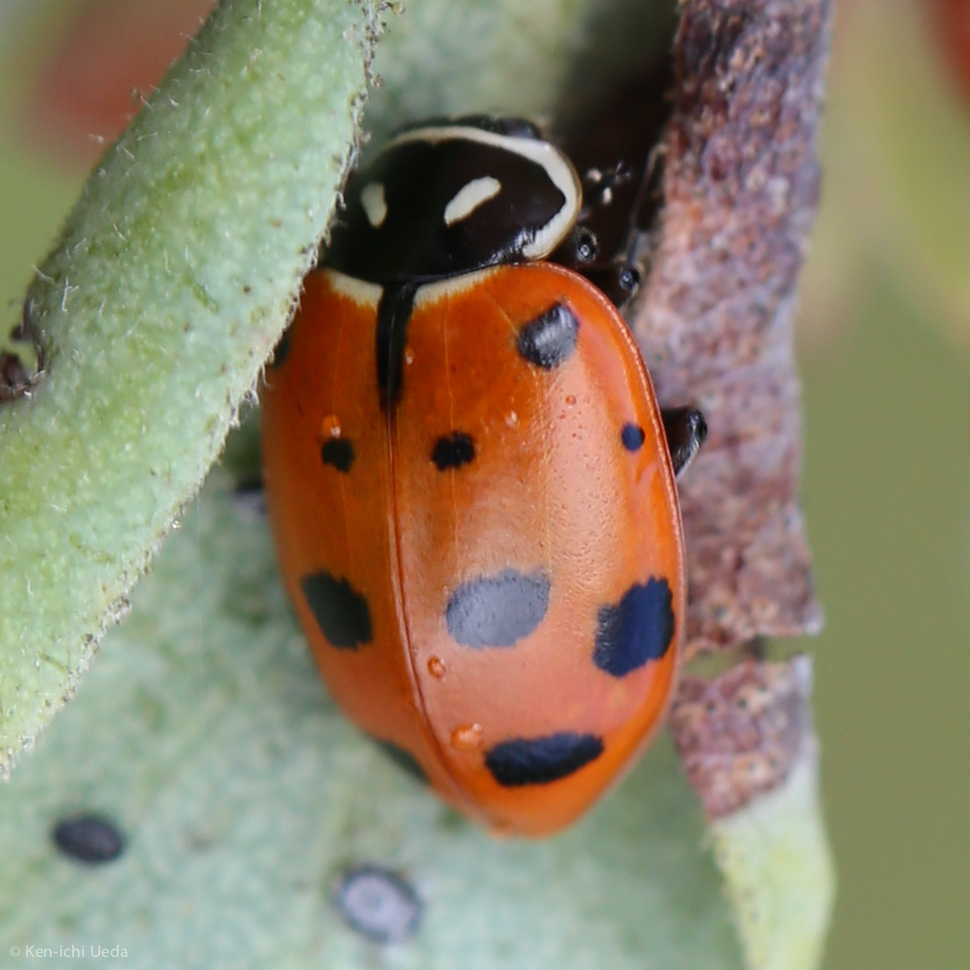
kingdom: Animalia
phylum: Arthropoda
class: Insecta
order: Coleoptera
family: Coccinellidae
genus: Hippodamia
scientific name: Hippodamia convergens
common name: Convergent lady beetle
